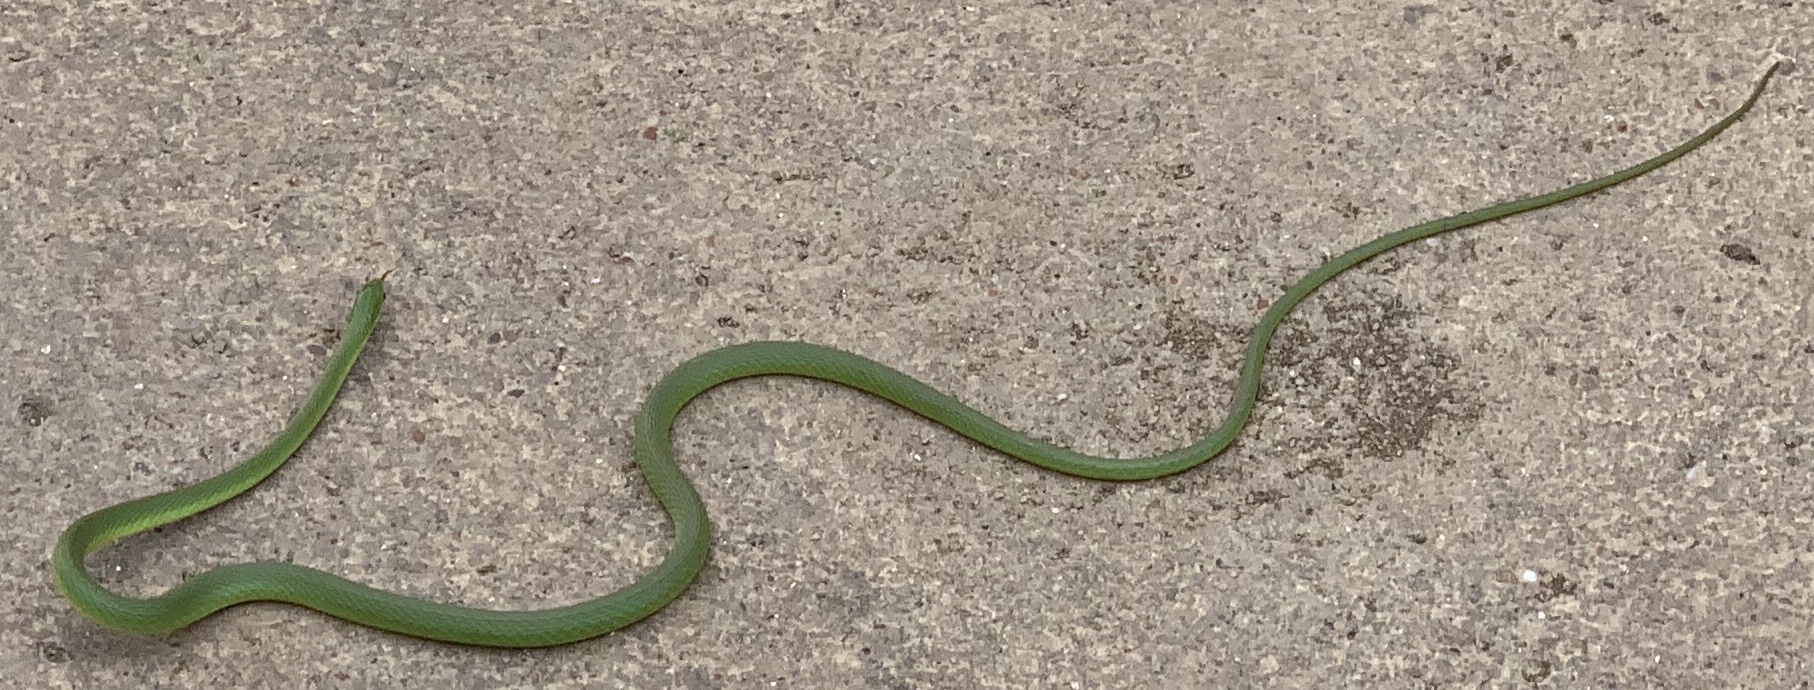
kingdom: Animalia
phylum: Chordata
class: Squamata
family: Colubridae
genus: Opheodrys
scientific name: Opheodrys aestivus
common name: Rough greensnake
